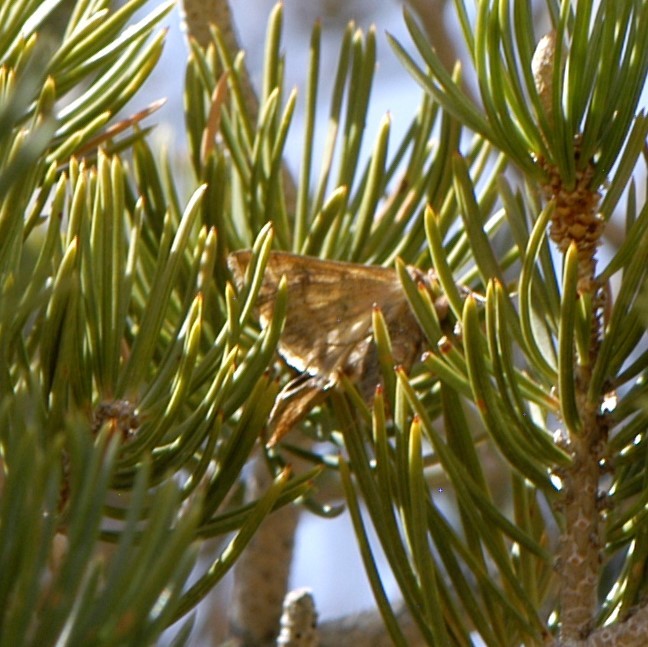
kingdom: Animalia
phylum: Arthropoda
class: Insecta
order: Lepidoptera
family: Noctuidae
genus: Megalographa
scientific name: Megalographa biloba
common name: Cutworm
